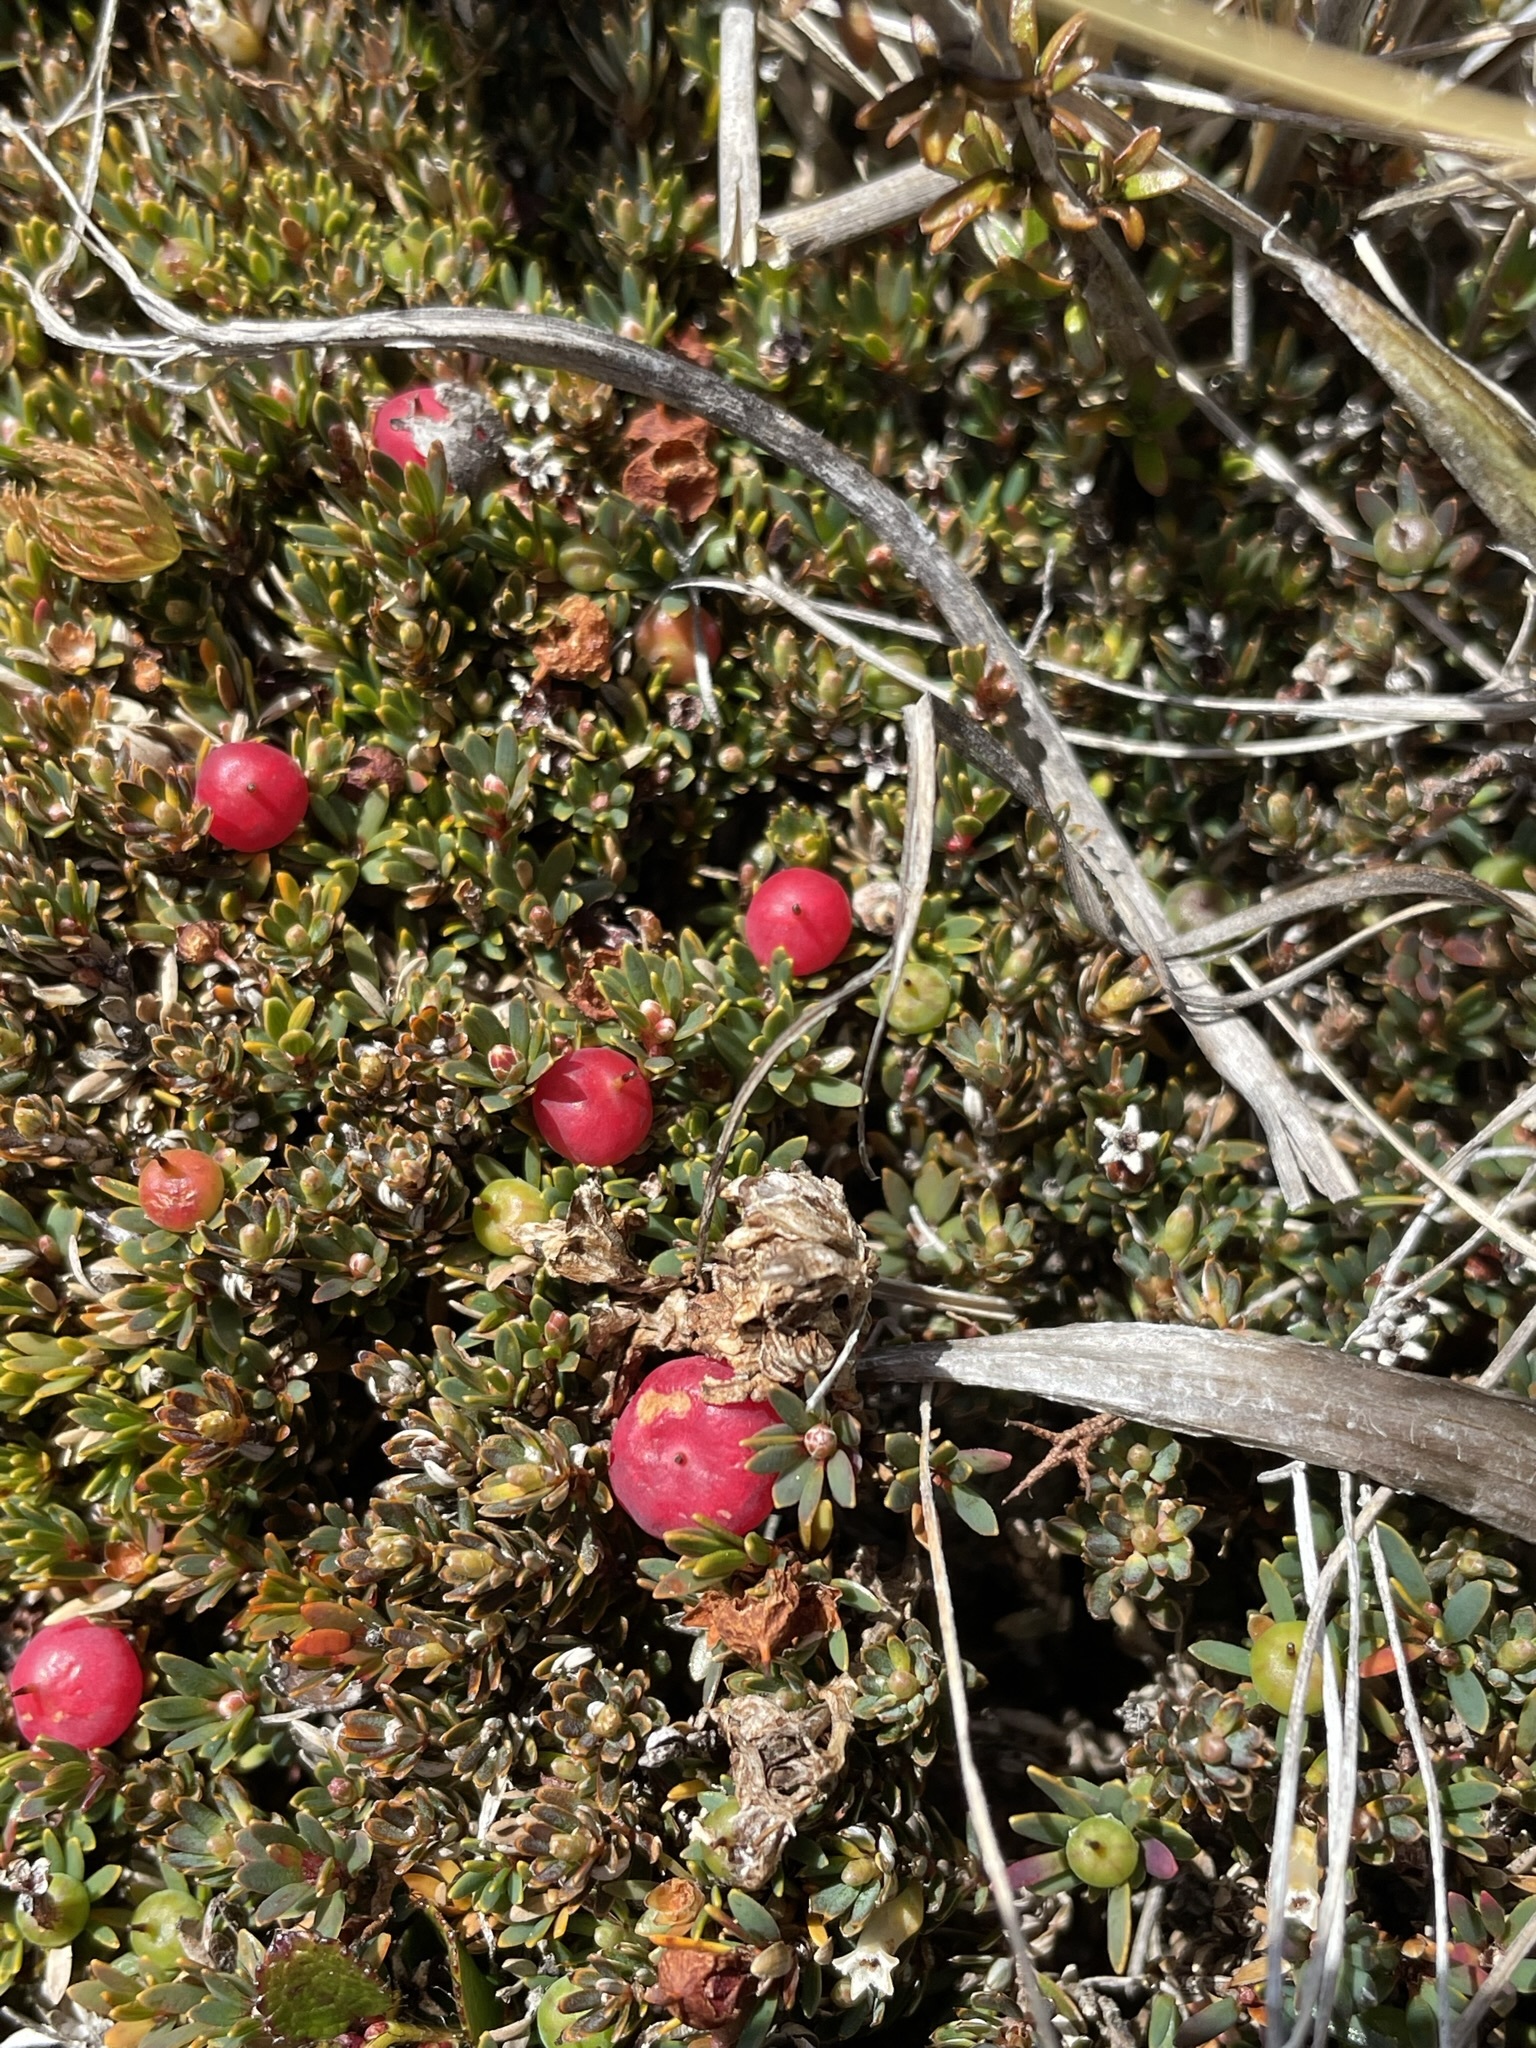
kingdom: Plantae
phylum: Tracheophyta
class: Magnoliopsida
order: Ericales
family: Ericaceae
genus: Pentachondra
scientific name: Pentachondra pumila
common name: Carpet-heath
